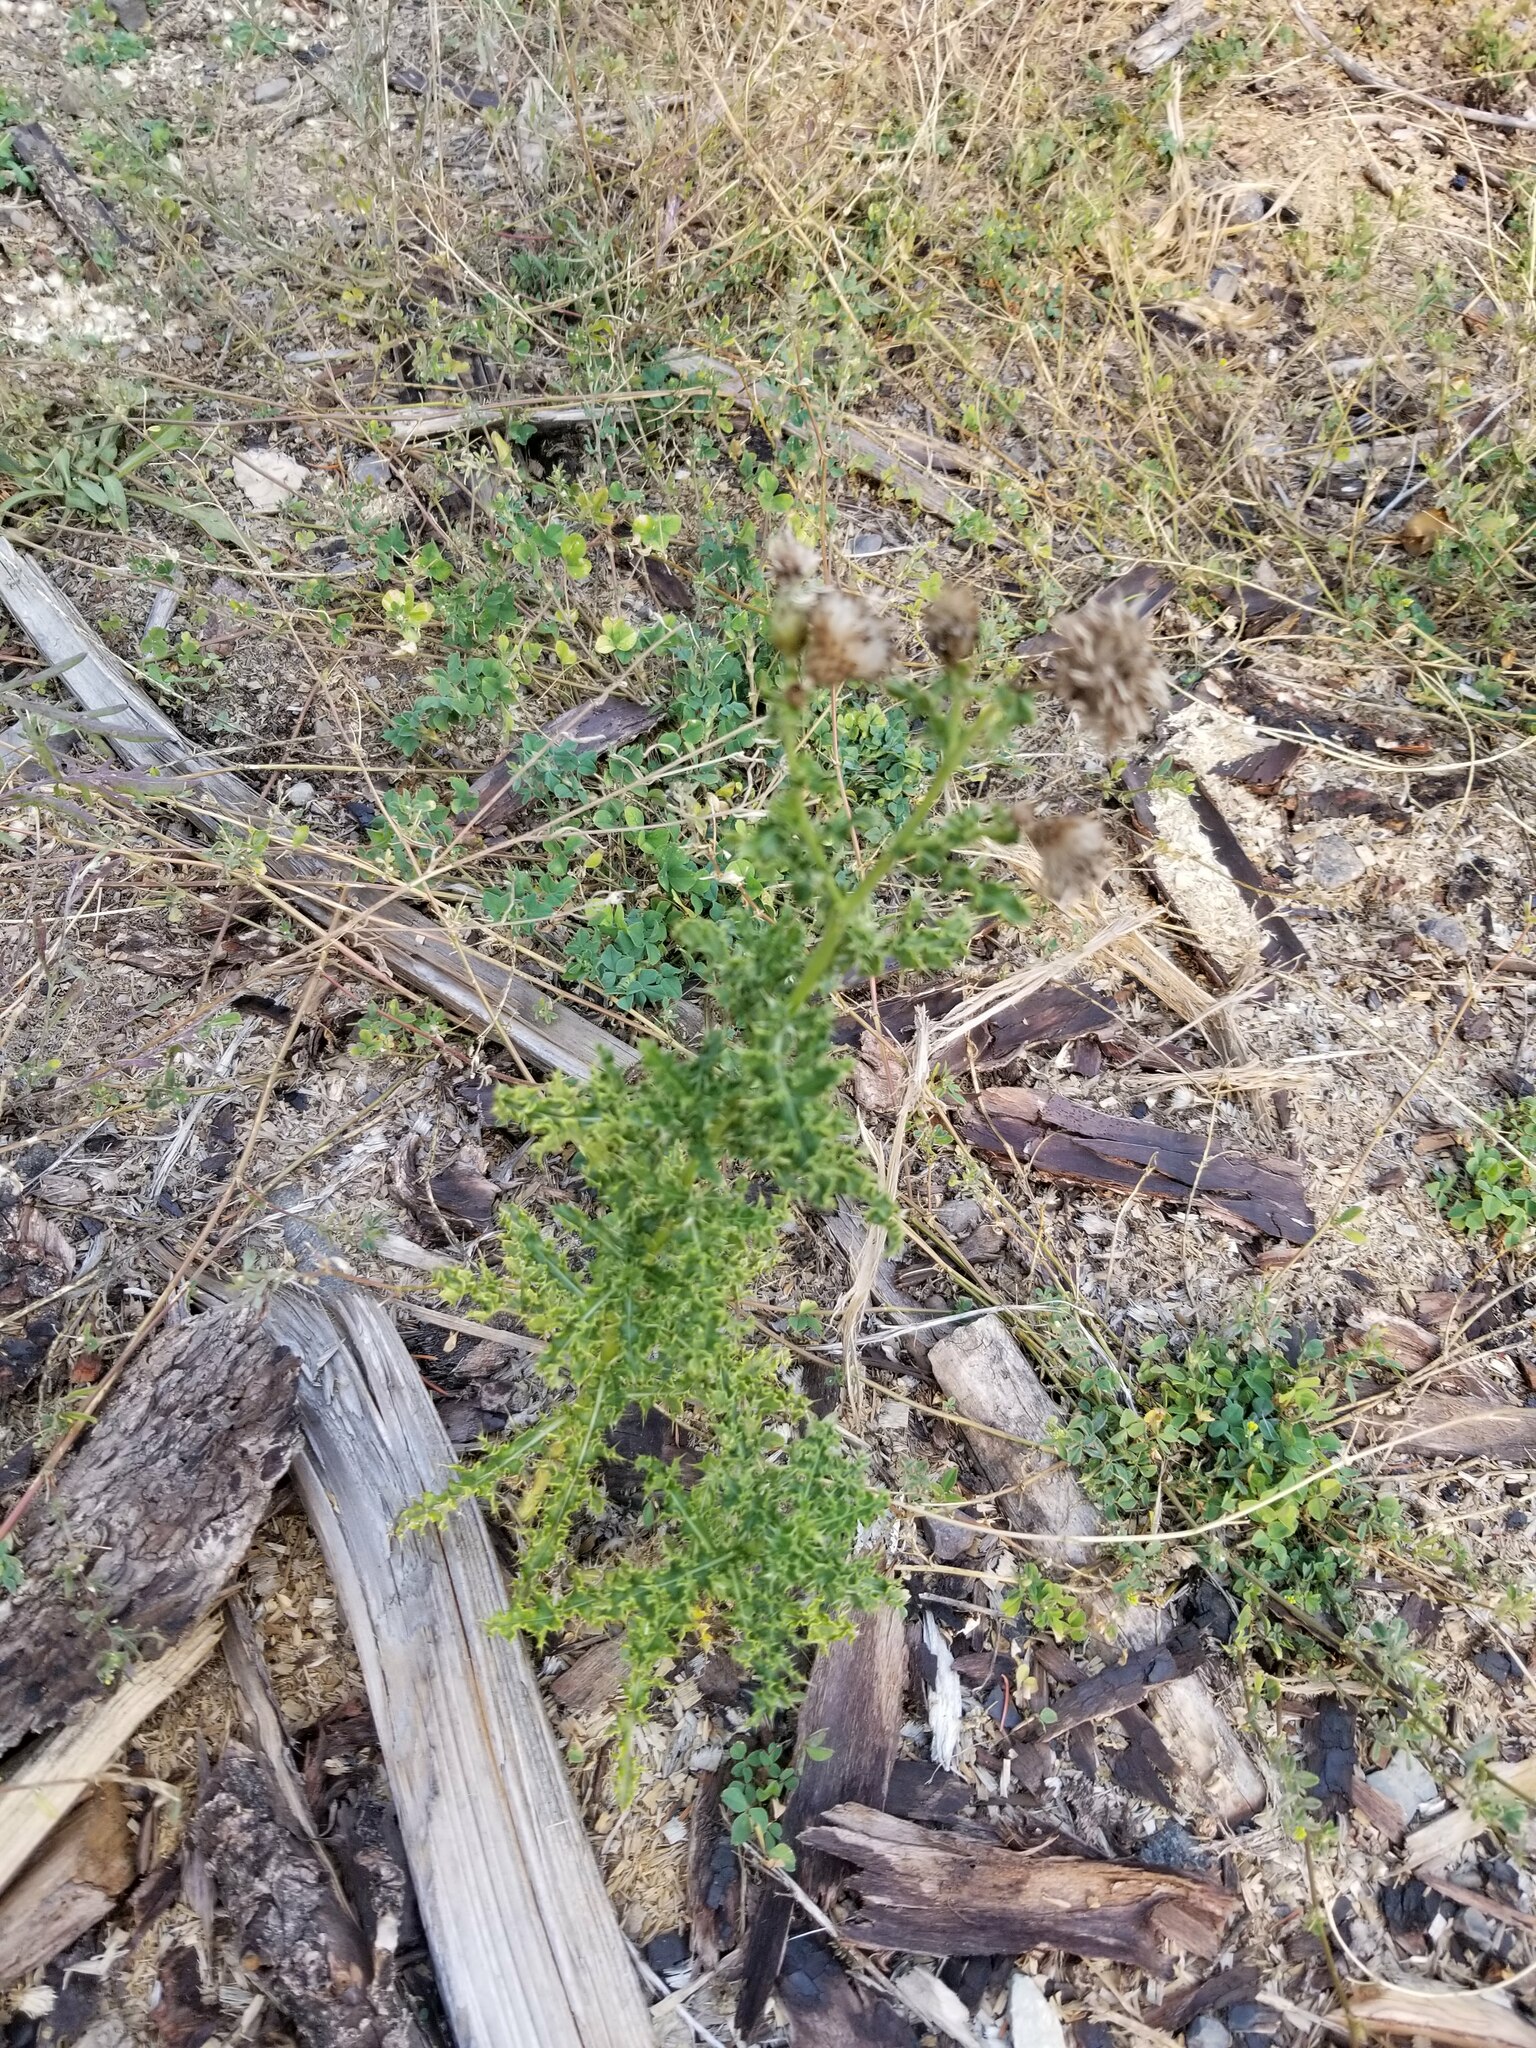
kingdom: Plantae
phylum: Tracheophyta
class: Magnoliopsida
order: Asterales
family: Asteraceae
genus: Cirsium
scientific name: Cirsium arvense
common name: Creeping thistle
